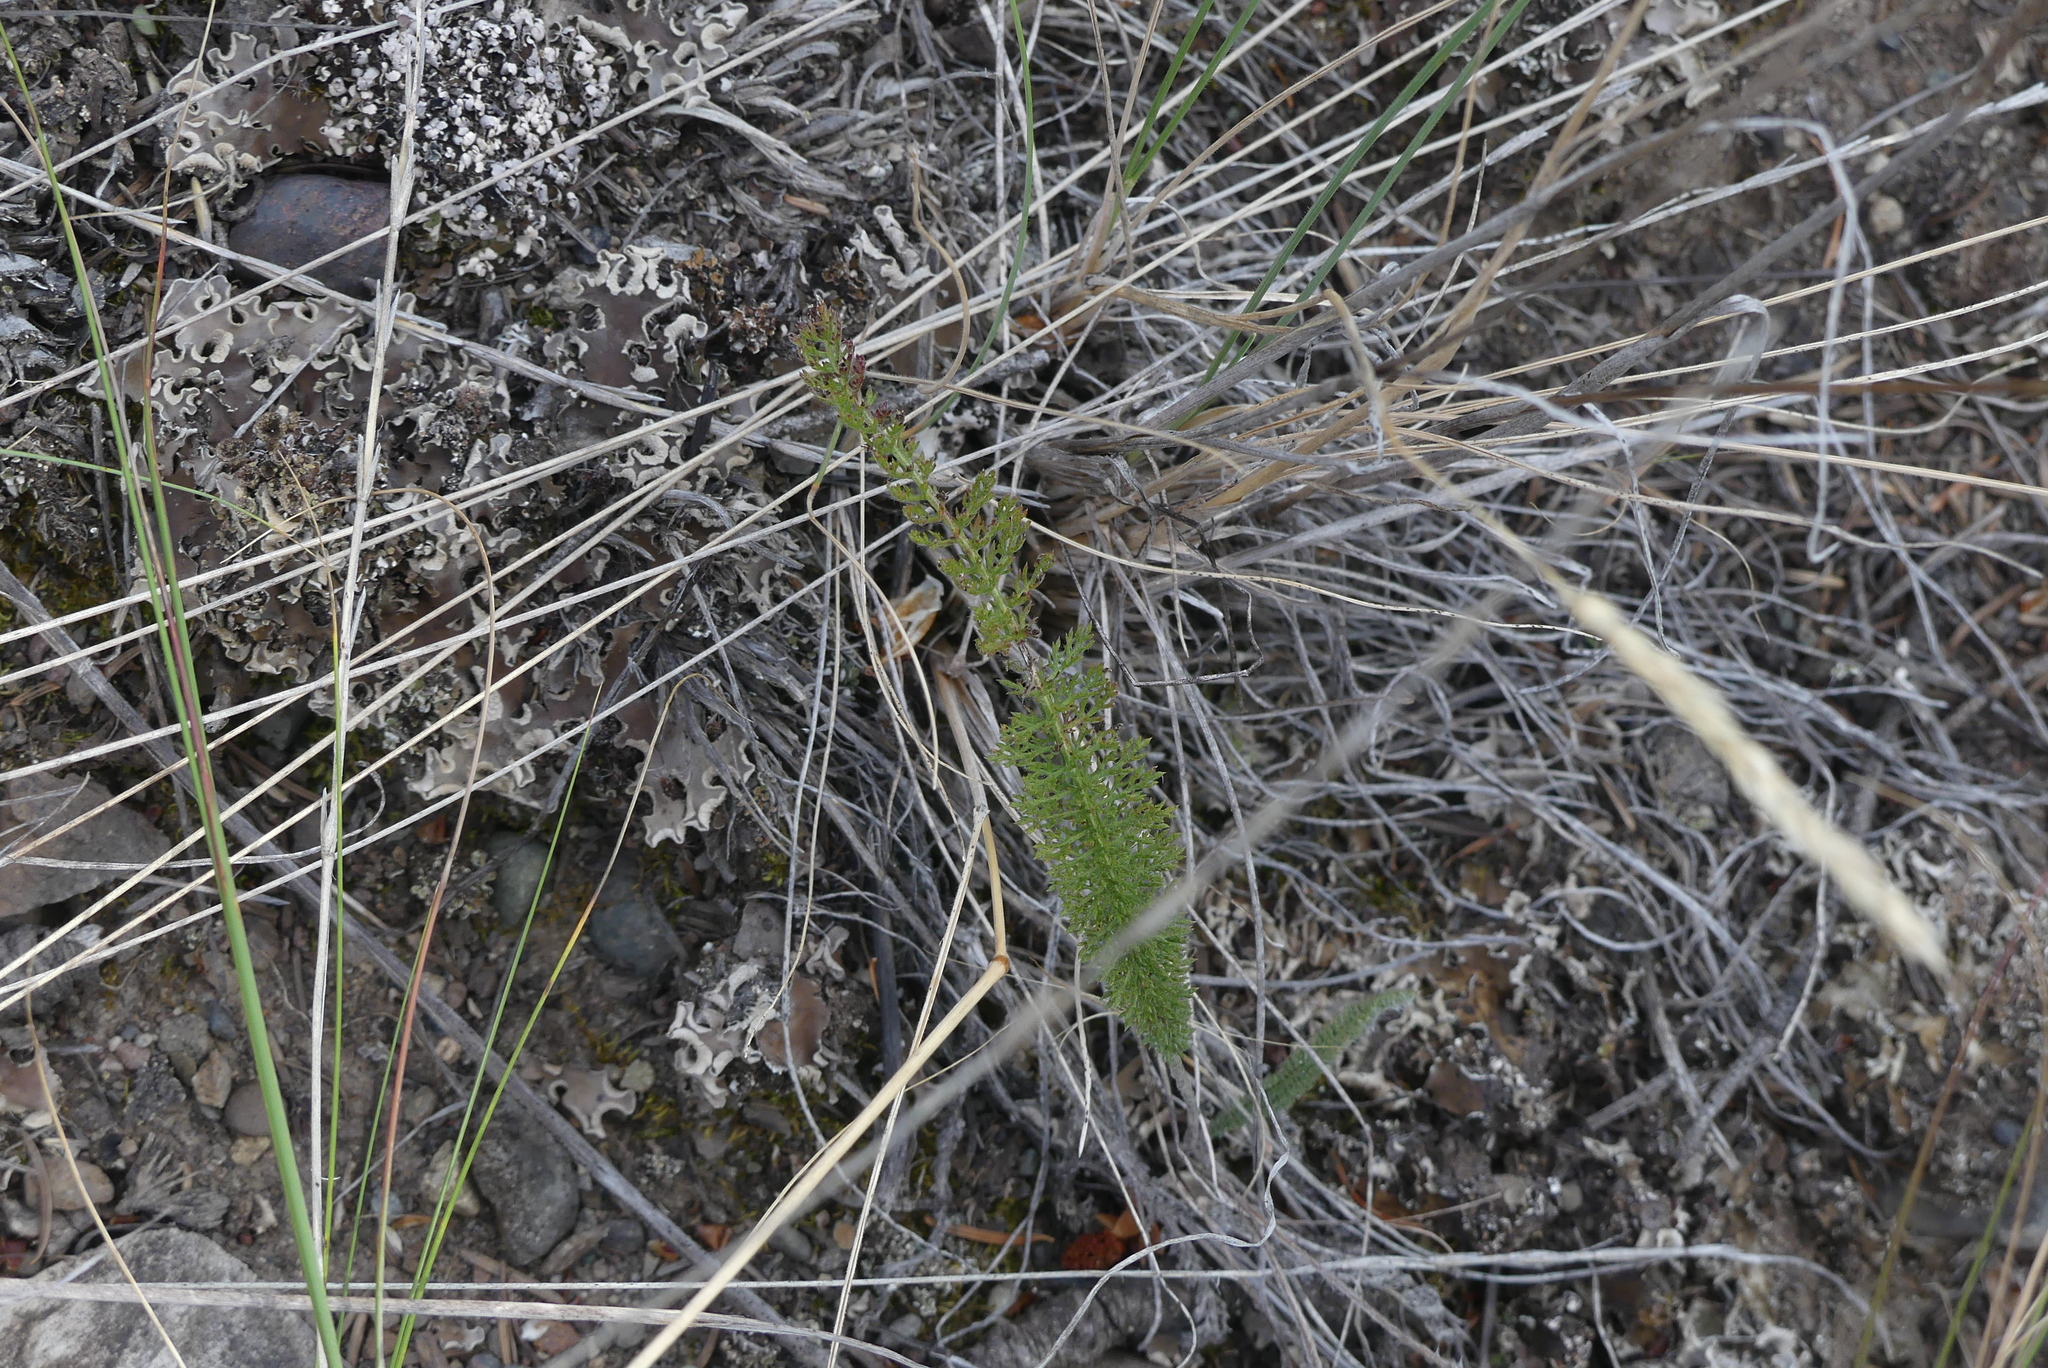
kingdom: Plantae
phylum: Tracheophyta
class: Magnoliopsida
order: Asterales
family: Asteraceae
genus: Achillea
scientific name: Achillea millefolium
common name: Yarrow
